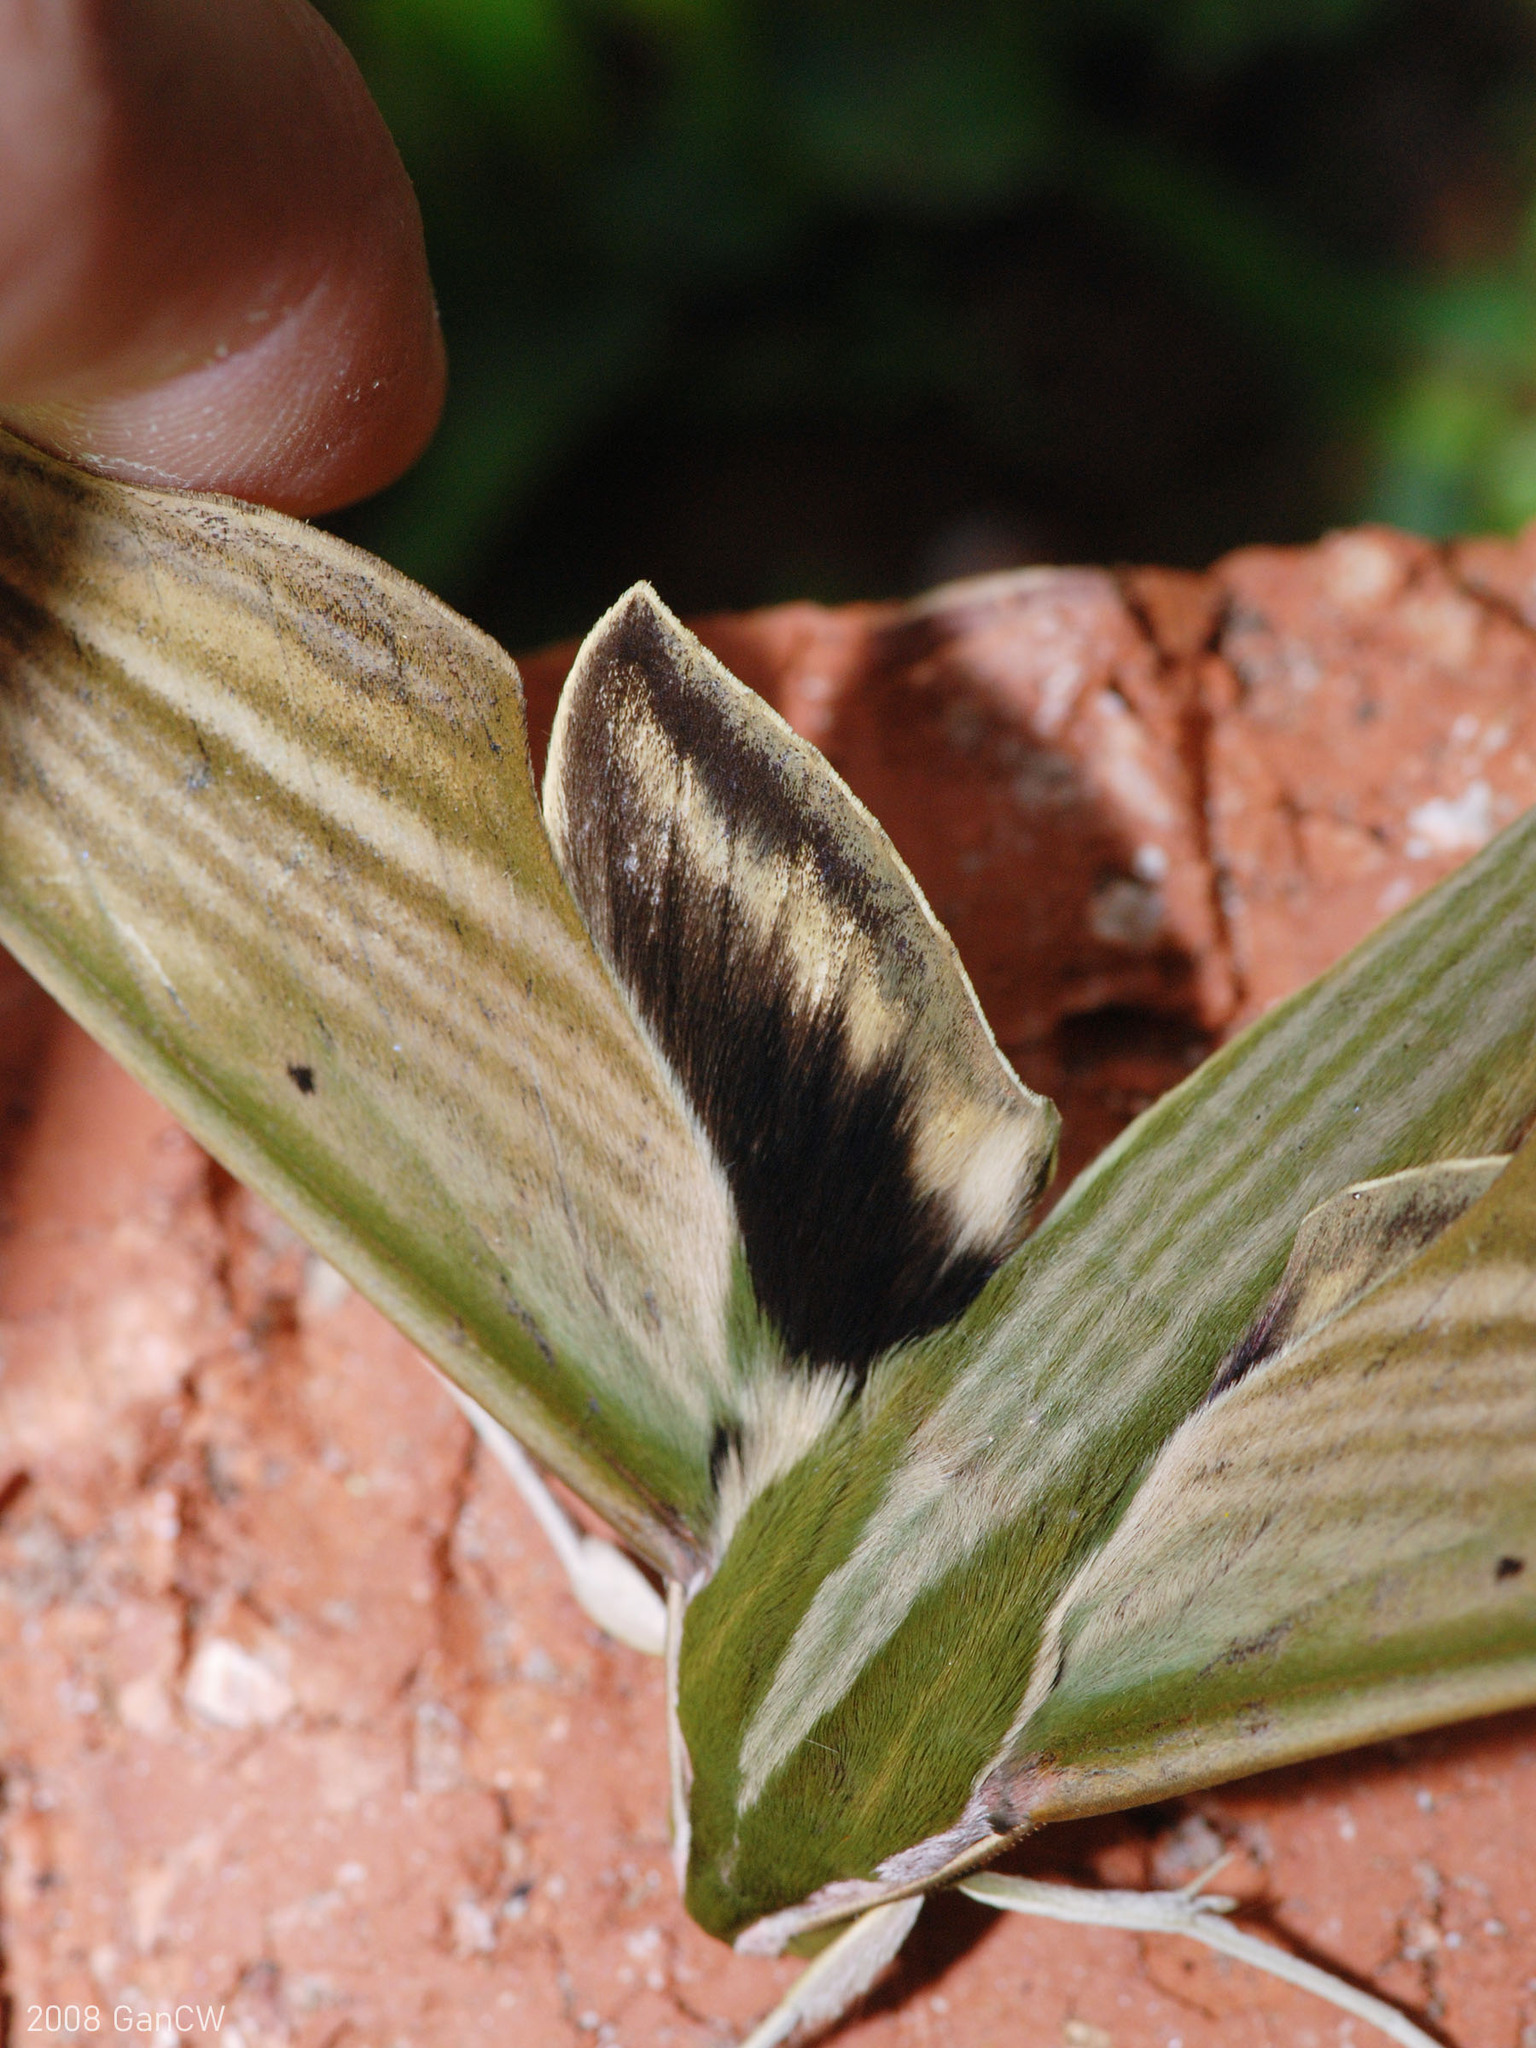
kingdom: Animalia
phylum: Arthropoda
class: Insecta
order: Lepidoptera
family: Sphingidae
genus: Cechetra
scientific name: Cechetra lineosa
